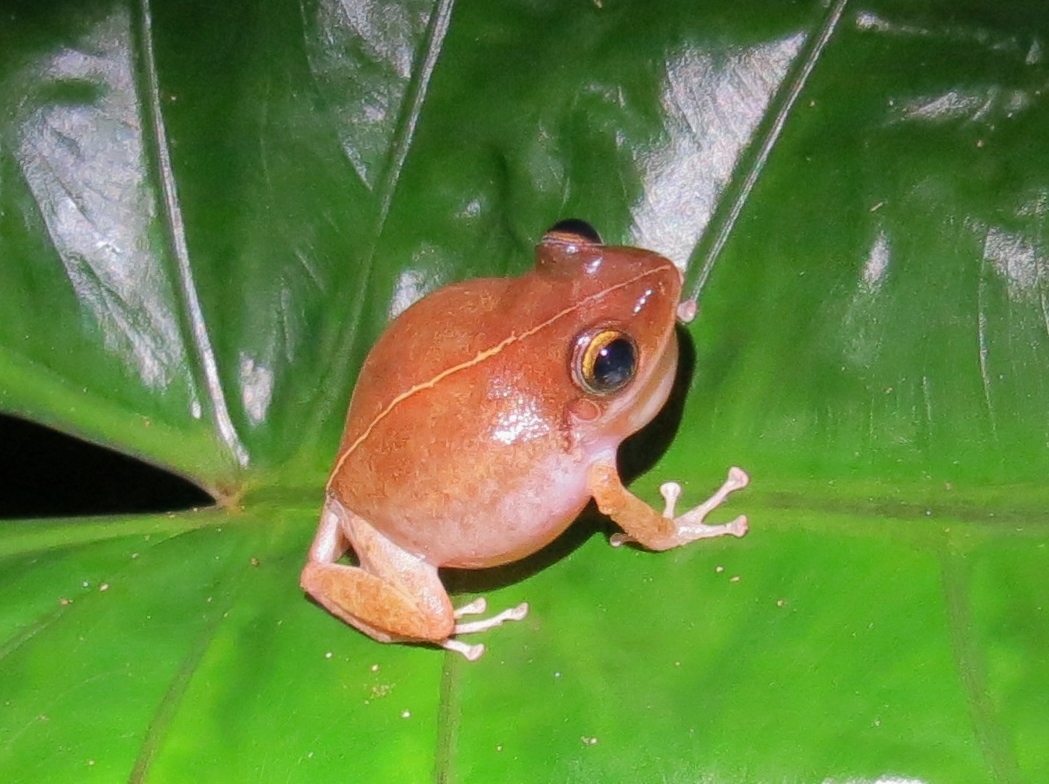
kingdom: Animalia
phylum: Chordata
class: Amphibia
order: Anura
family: Eleutherodactylidae
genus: Eleutherodactylus
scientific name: Eleutherodactylus coqui
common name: Coqui frog
